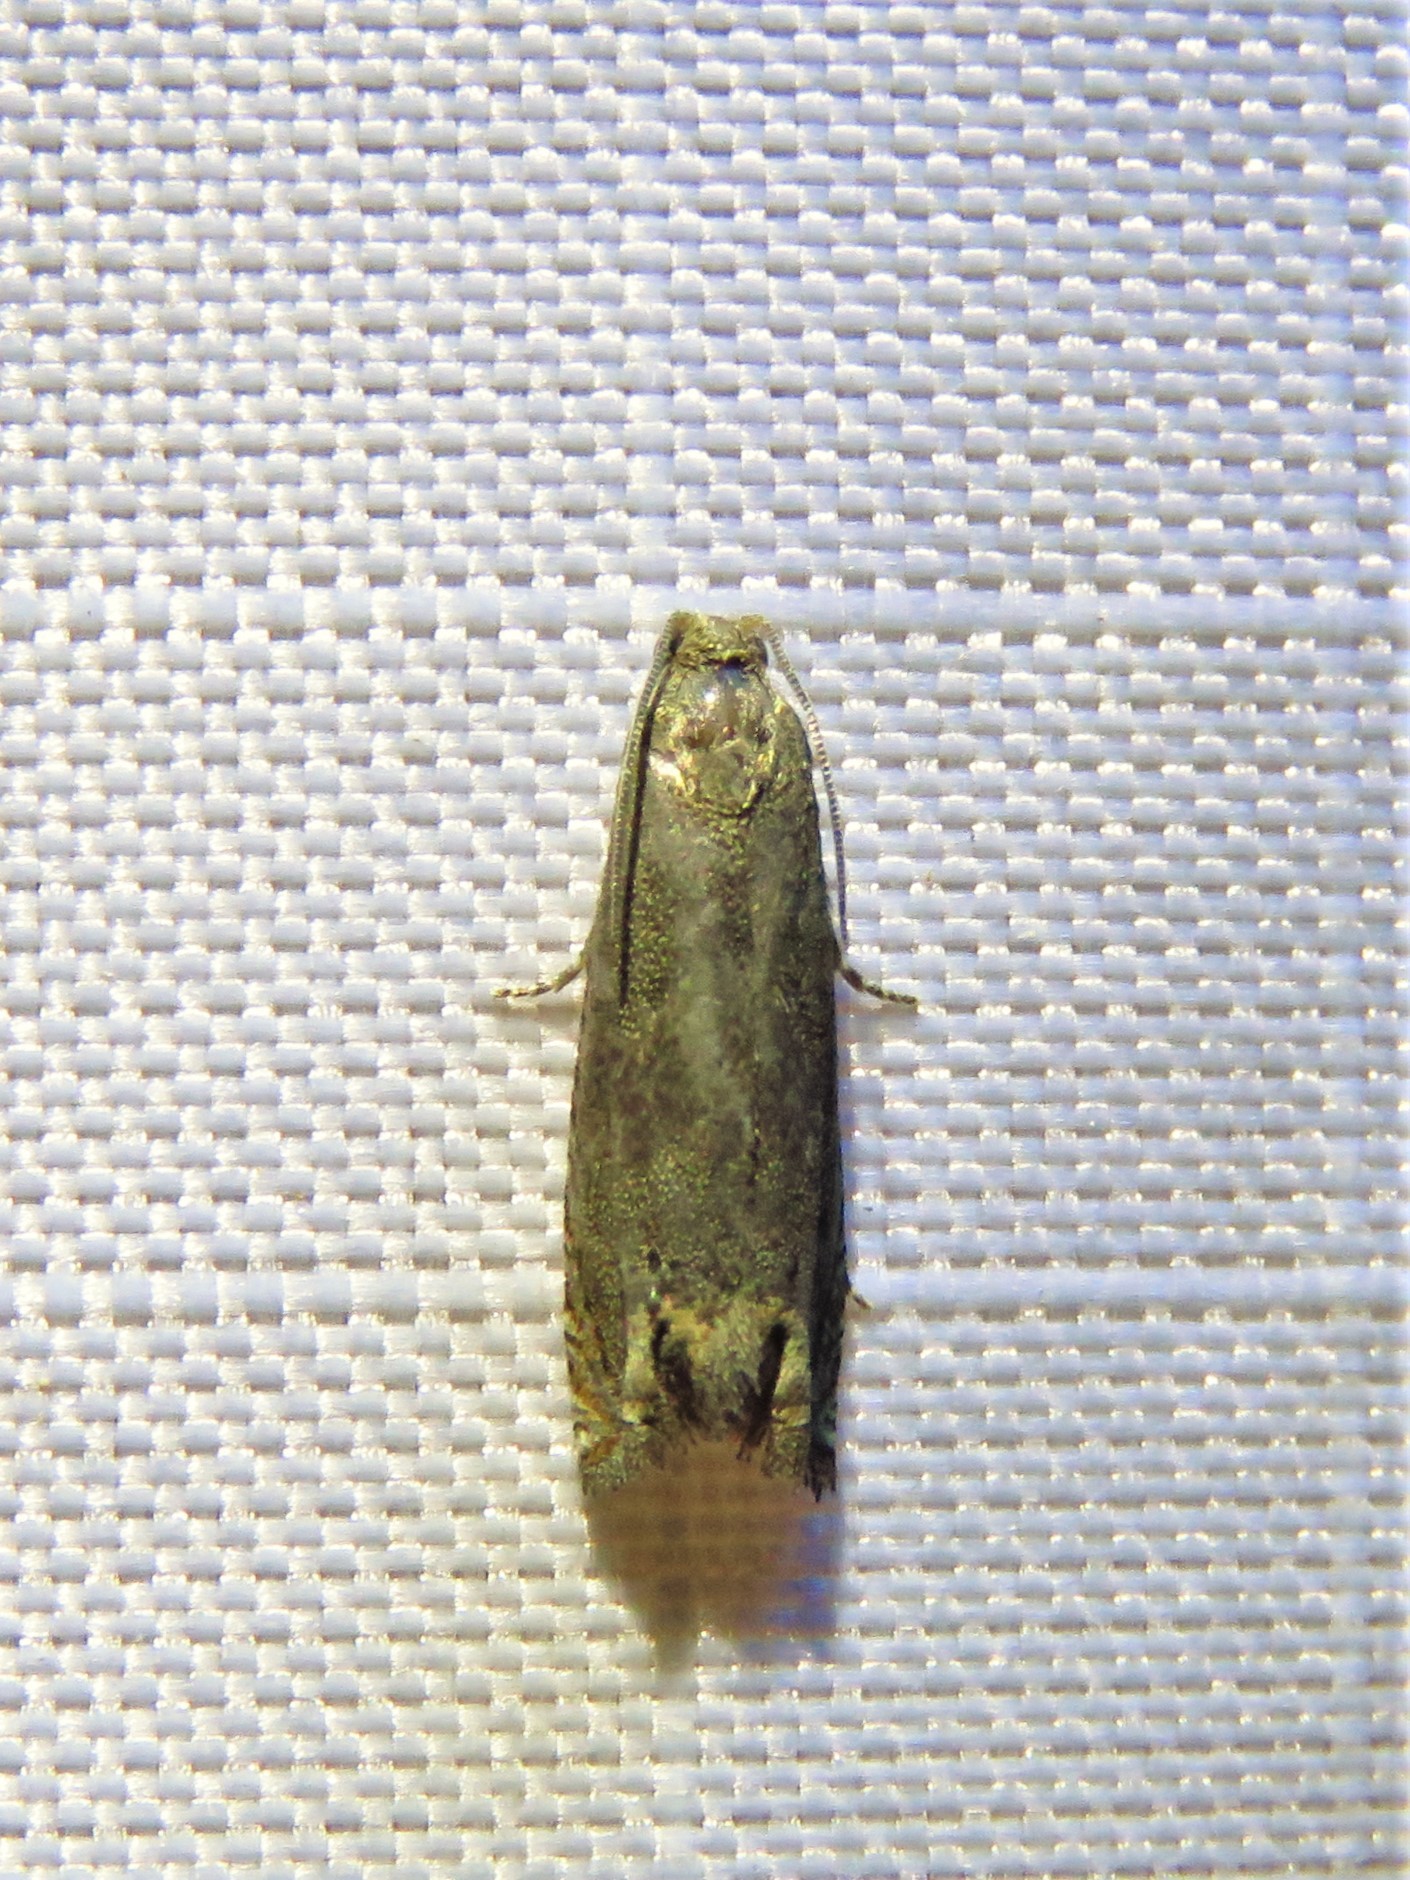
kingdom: Animalia
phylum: Arthropoda
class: Insecta
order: Lepidoptera
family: Tortricidae
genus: Epiblema
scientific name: Epiblema strenuana
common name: Ragweed borer moth
